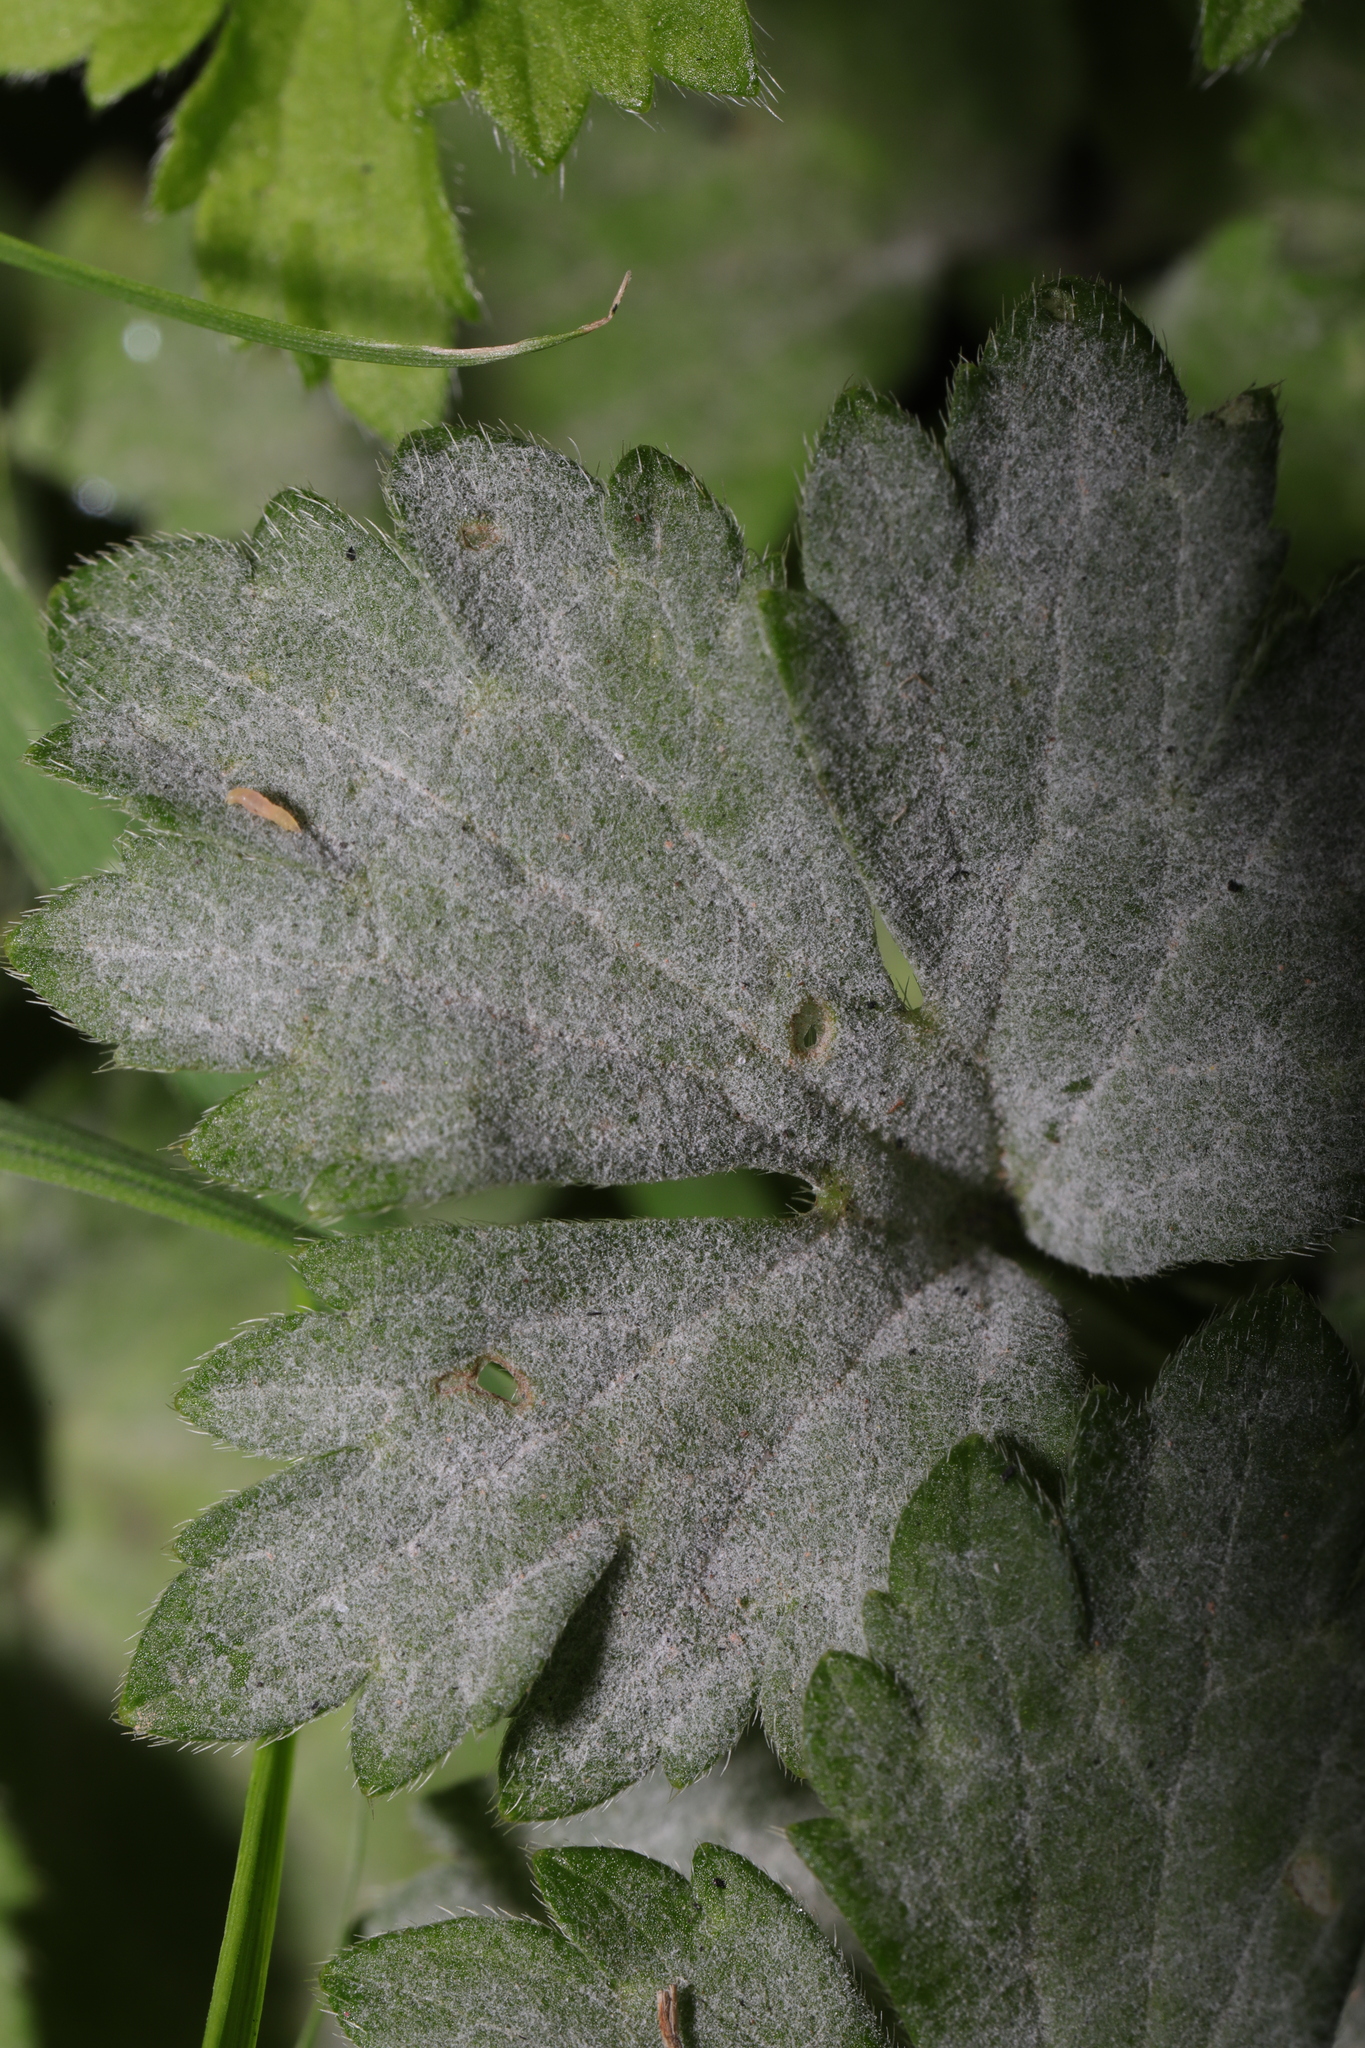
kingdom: Fungi
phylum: Ascomycota
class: Leotiomycetes
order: Helotiales
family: Erysiphaceae
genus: Erysiphe
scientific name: Erysiphe aquilegiae
